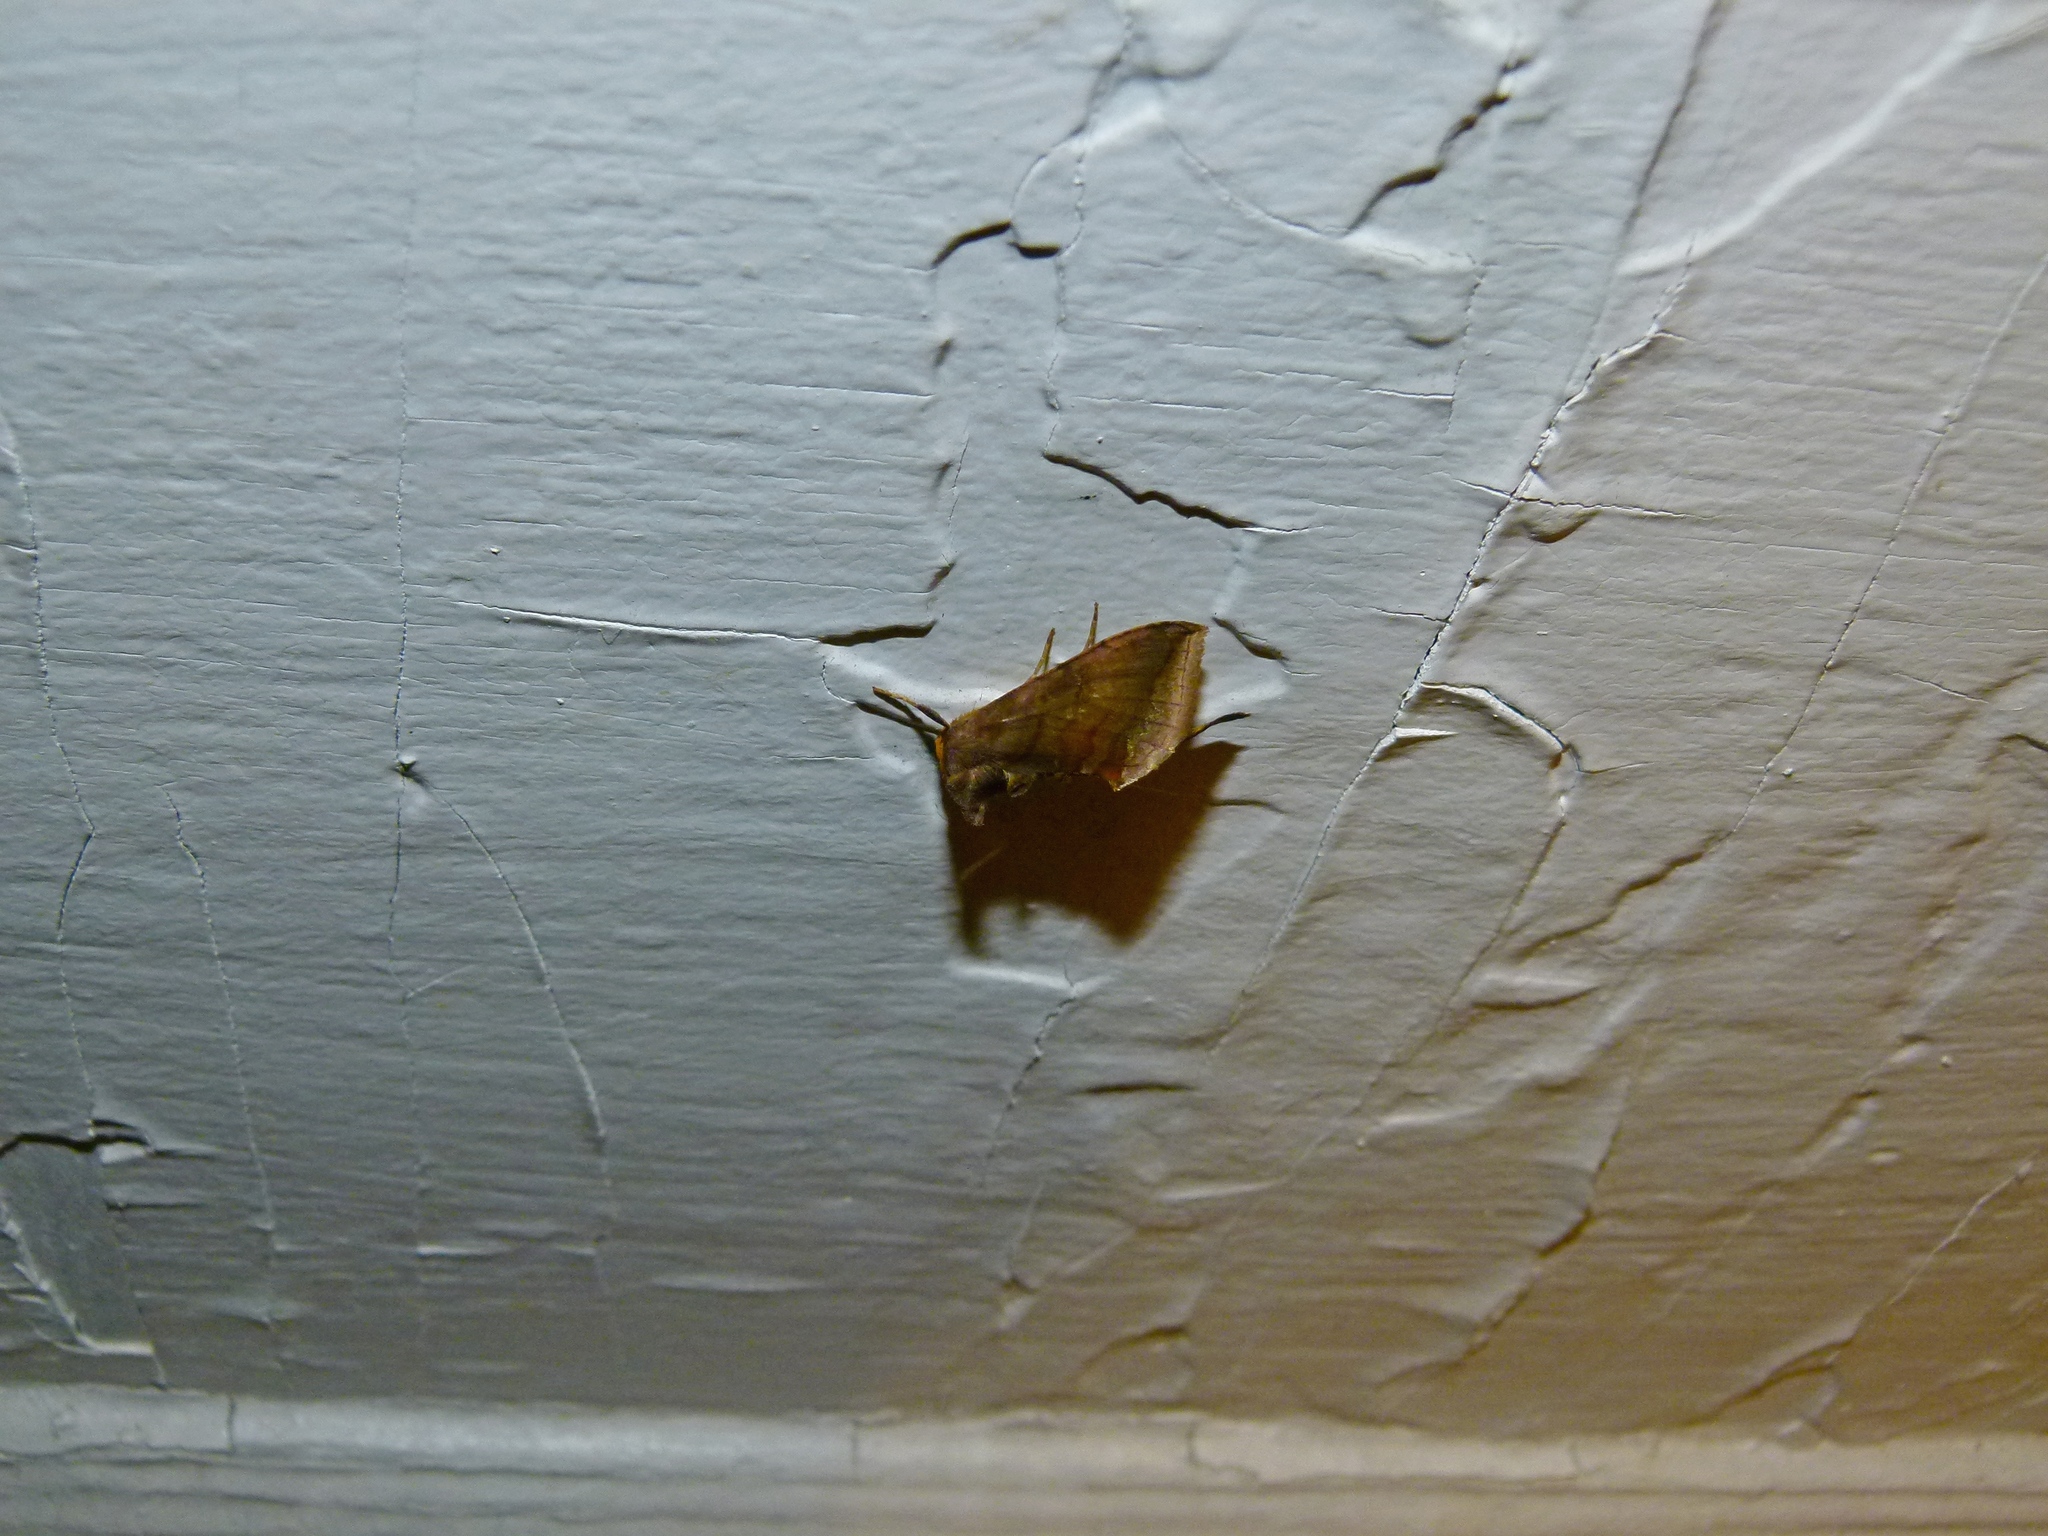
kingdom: Animalia
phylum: Arthropoda
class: Insecta
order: Lepidoptera
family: Noctuidae
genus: Allagrapha
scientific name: Allagrapha aerea
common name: Unspotted looper moth
